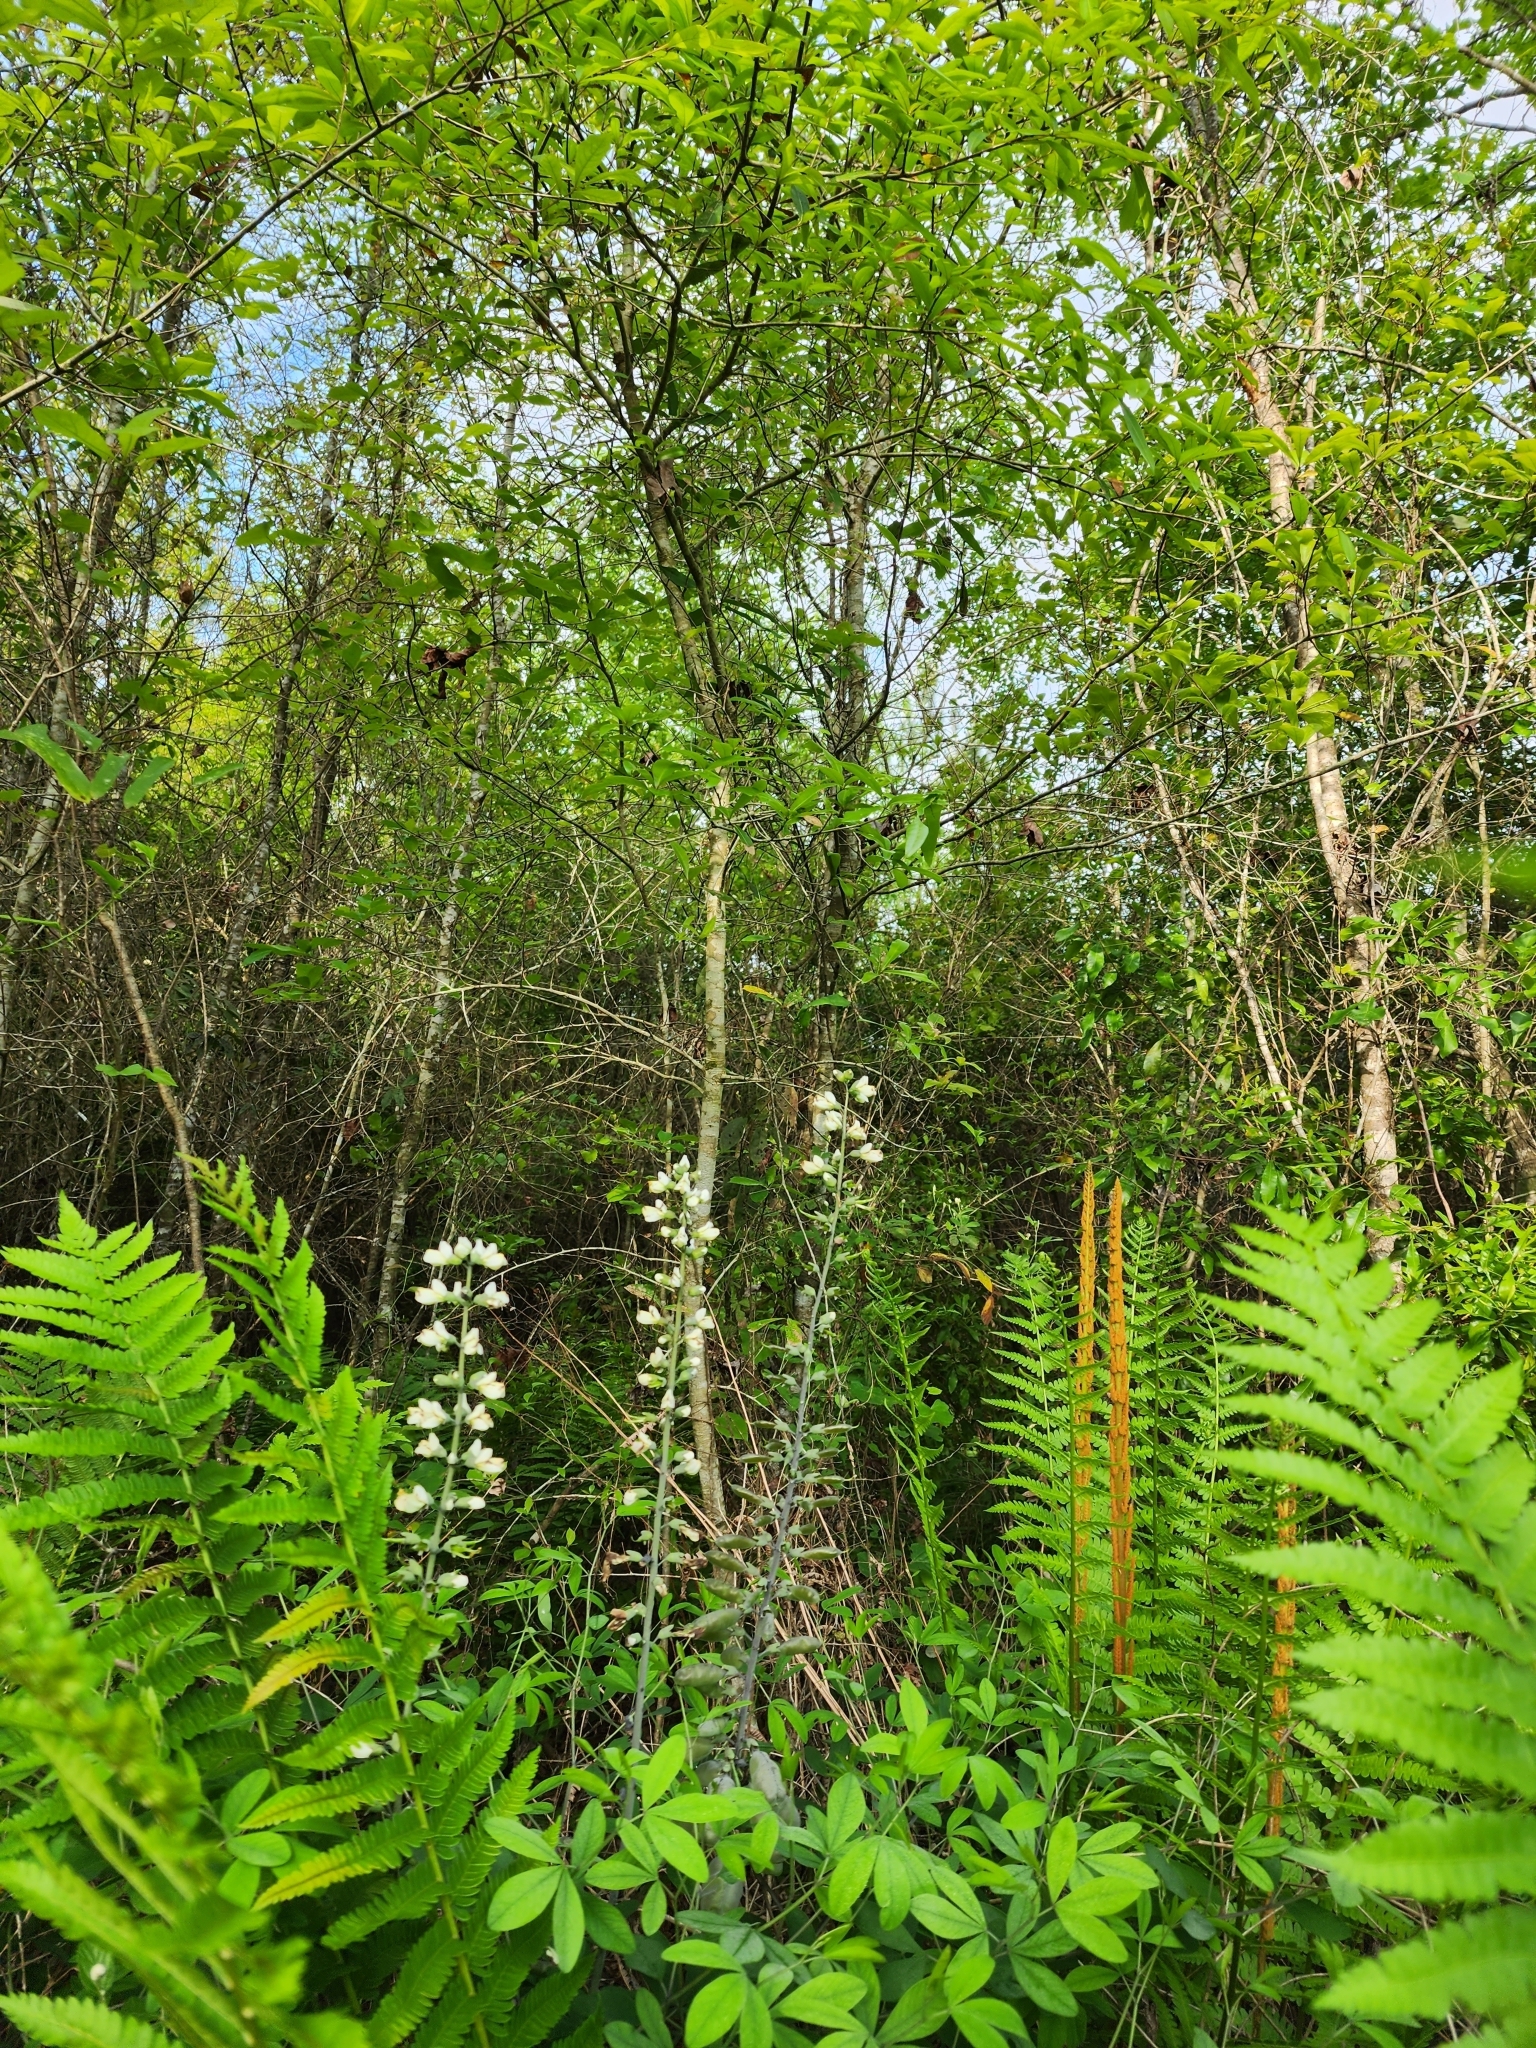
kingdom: Plantae
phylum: Tracheophyta
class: Magnoliopsida
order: Fabales
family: Fabaceae
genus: Baptisia
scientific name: Baptisia alba
